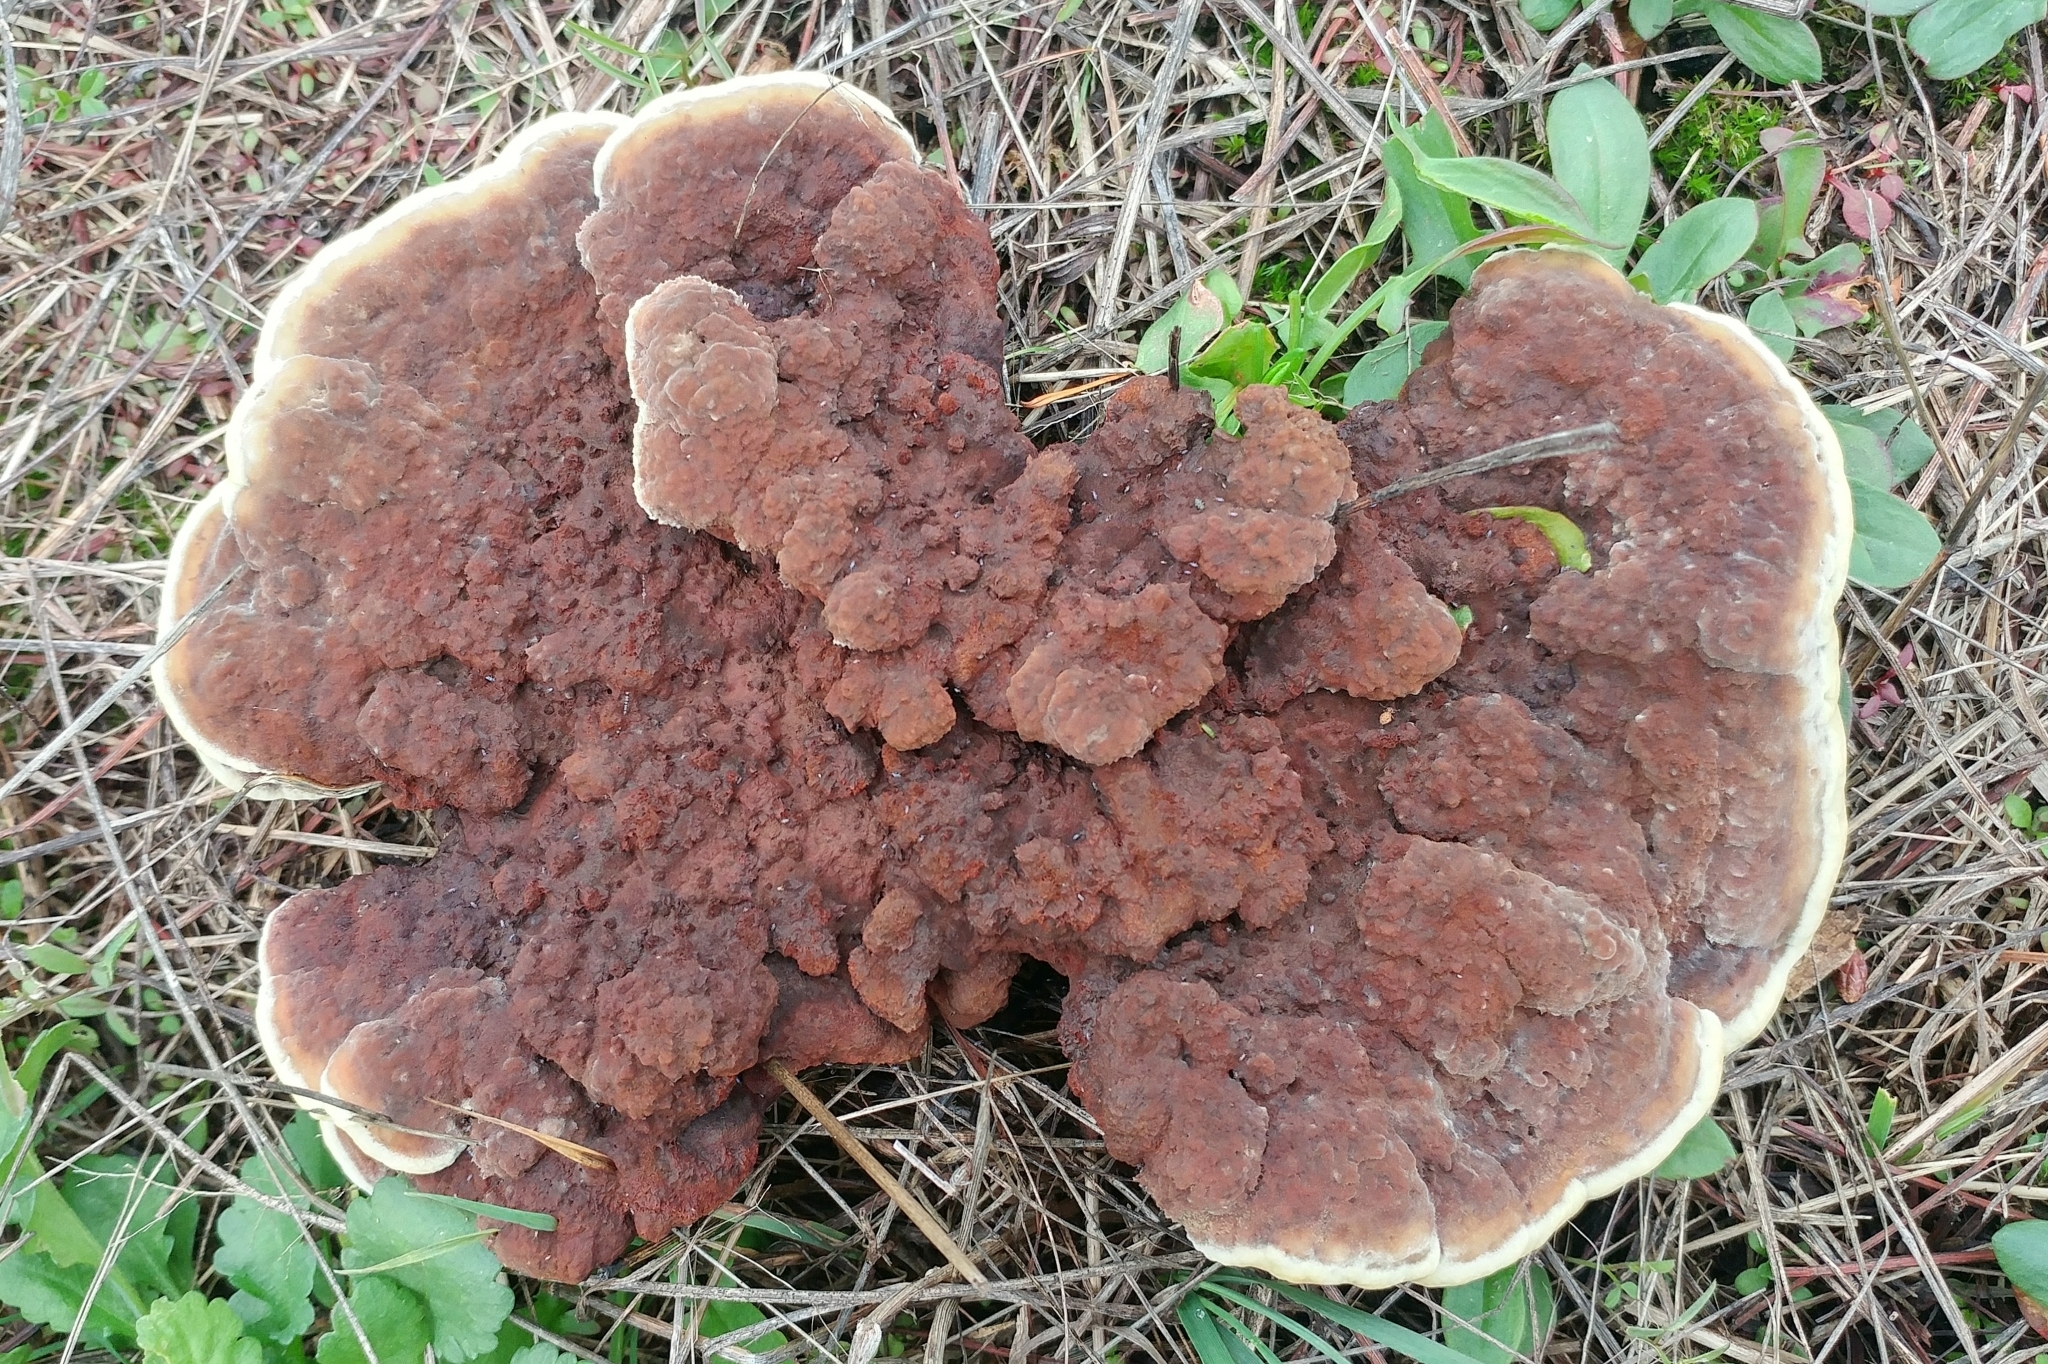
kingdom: Fungi
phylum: Basidiomycota
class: Agaricomycetes
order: Polyporales
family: Laetiporaceae
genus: Phaeolus
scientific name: Phaeolus schweinitzii
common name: Dyer's mazegill
